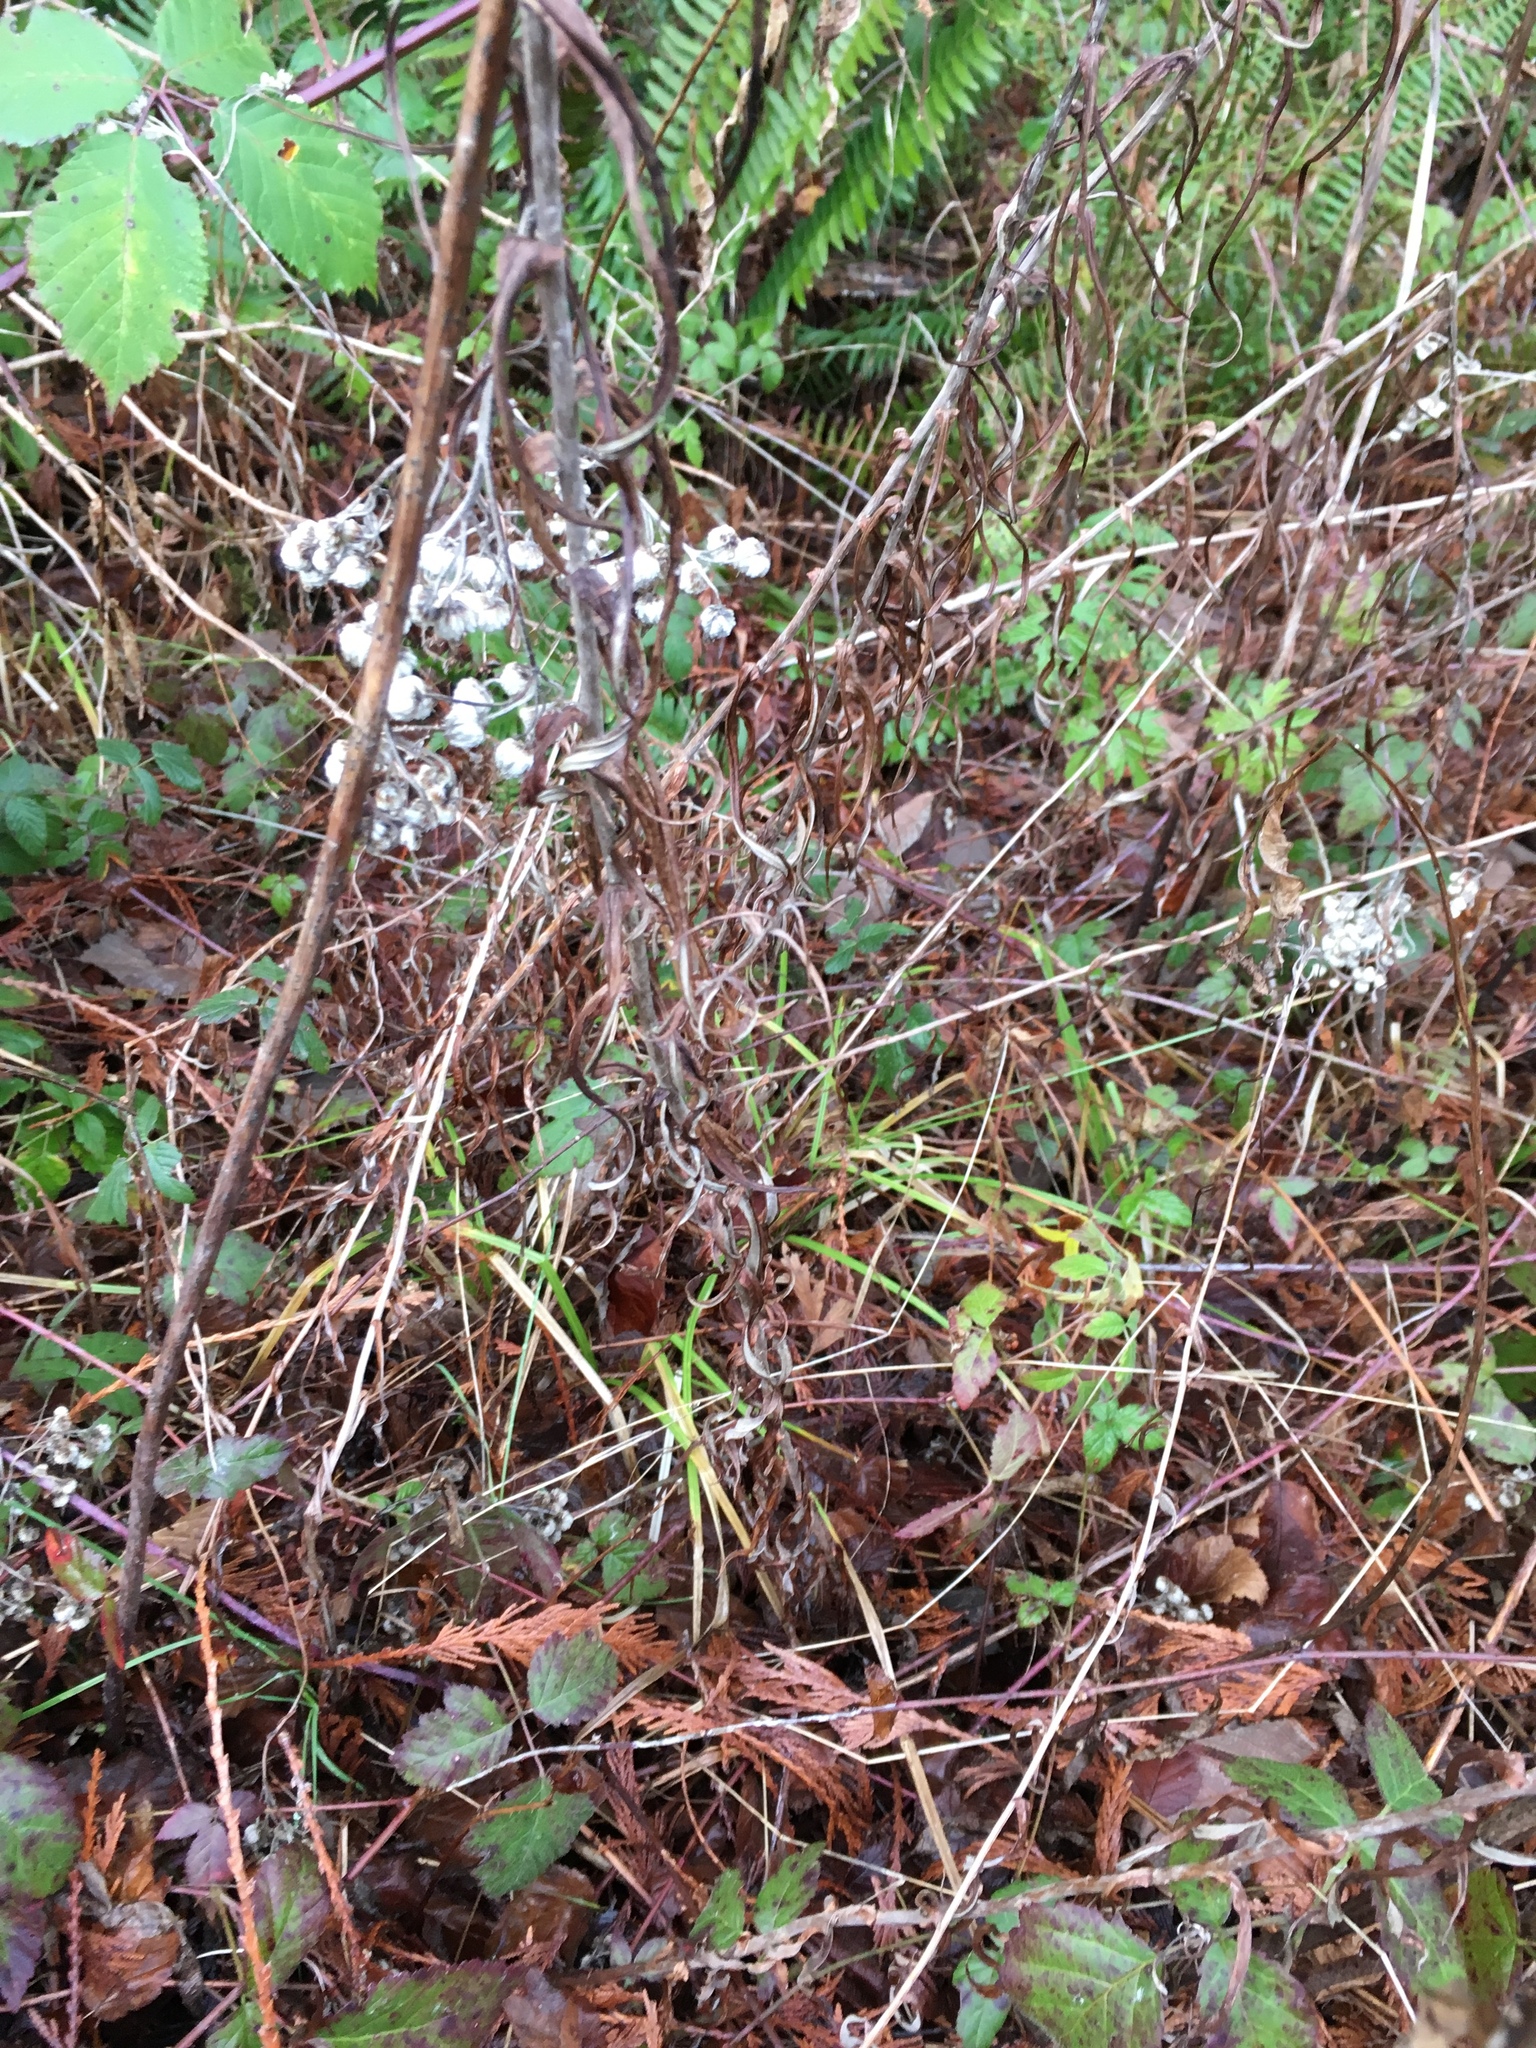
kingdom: Plantae
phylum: Tracheophyta
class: Magnoliopsida
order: Asterales
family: Asteraceae
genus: Anaphalis
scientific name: Anaphalis margaritacea
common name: Pearly everlasting
